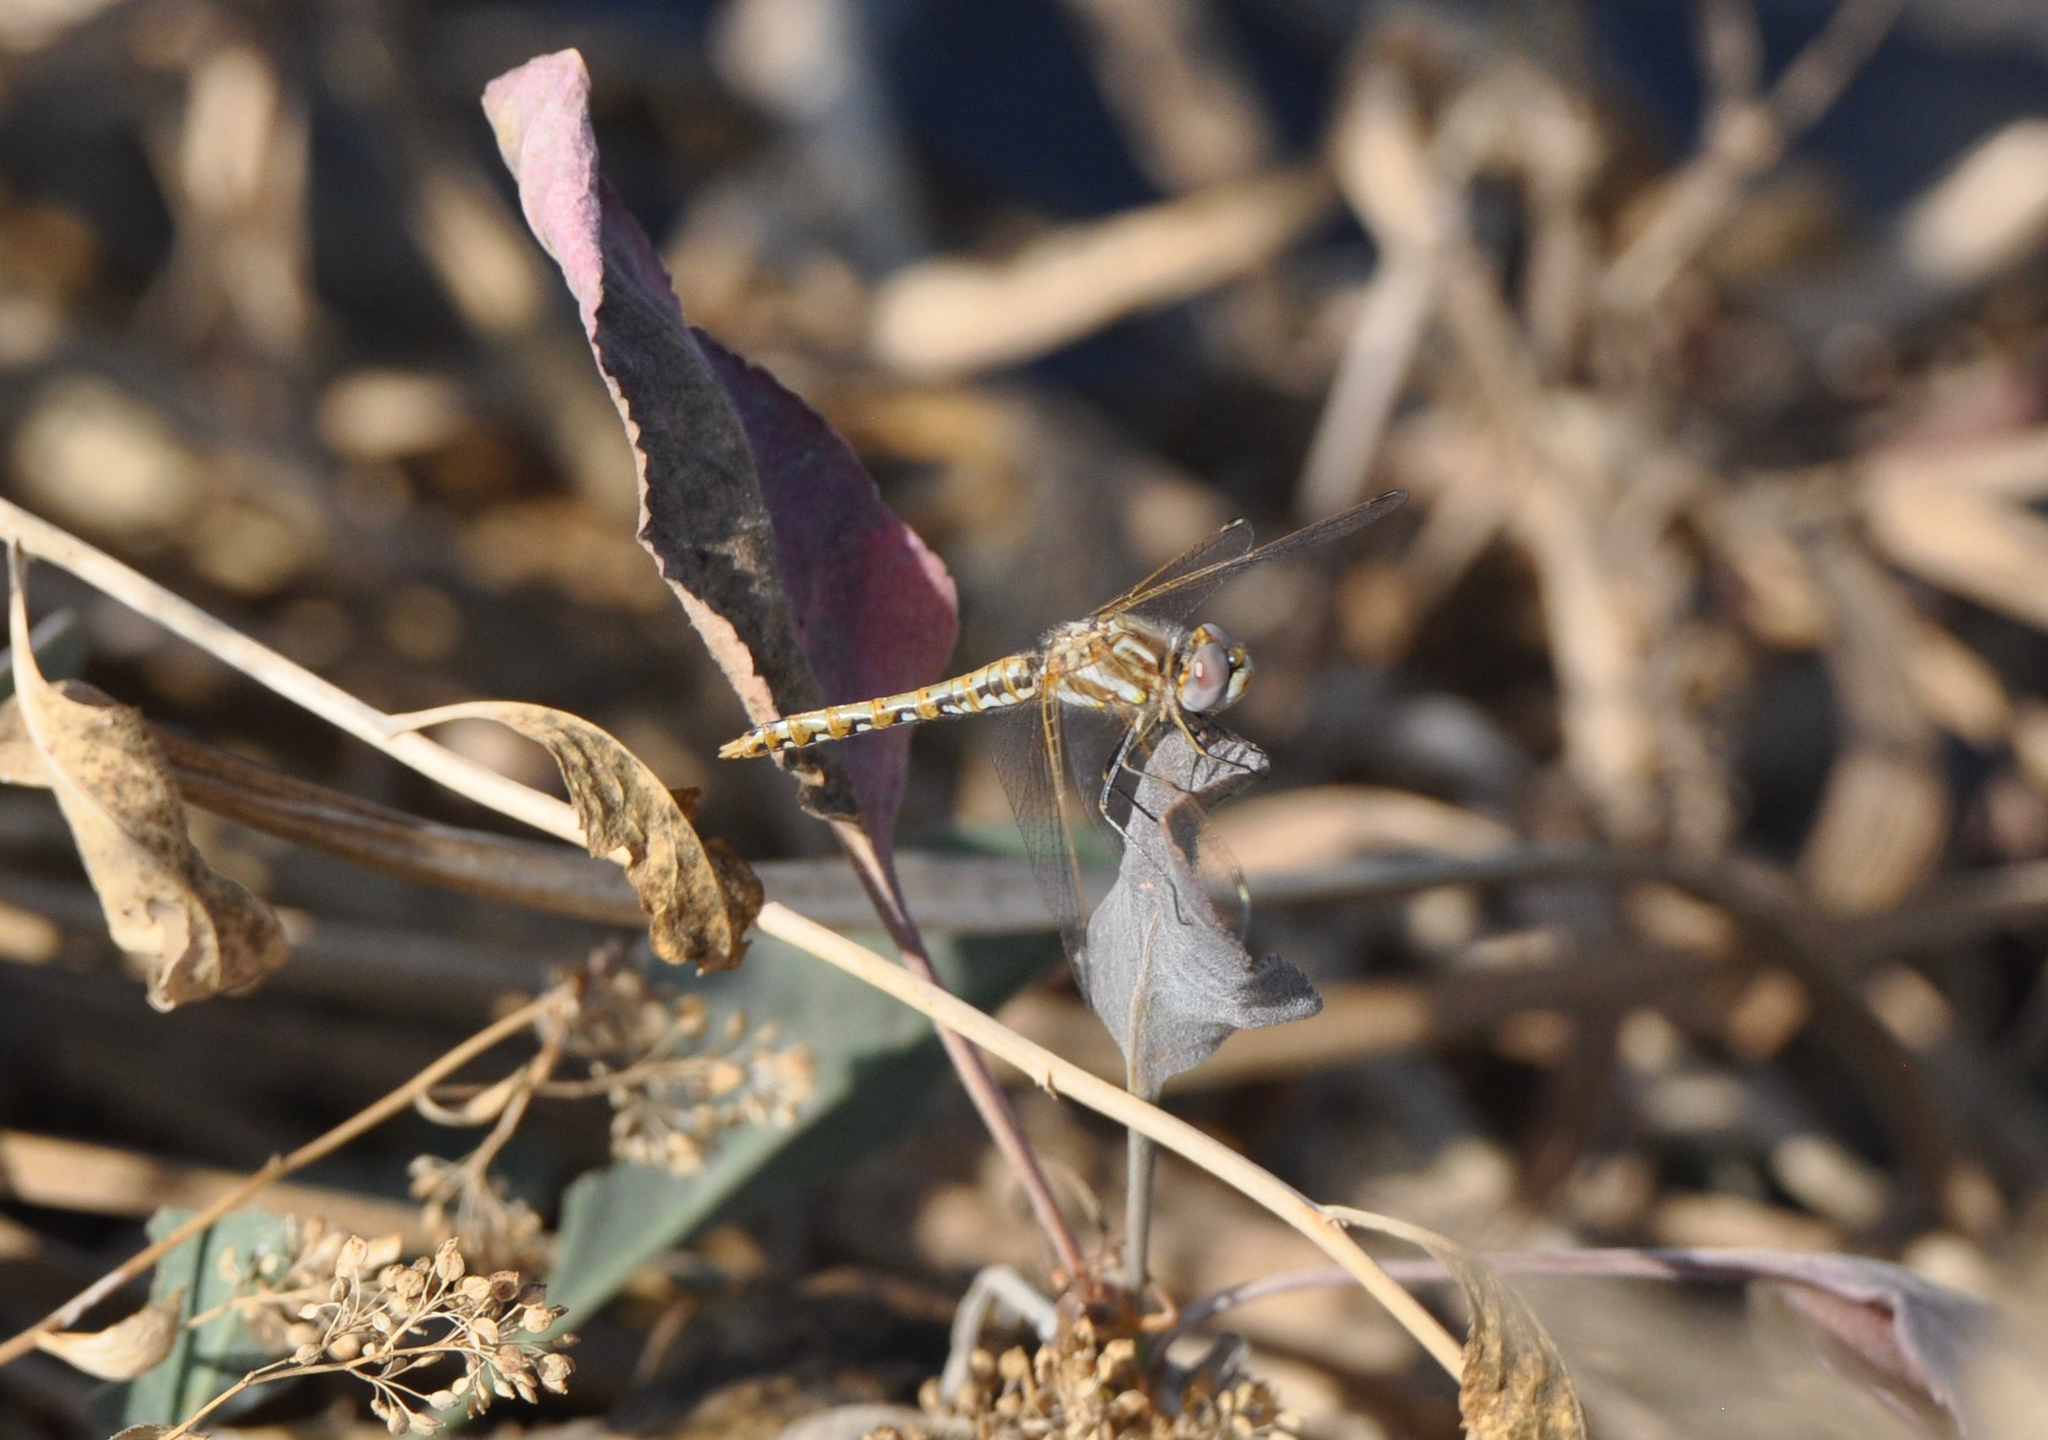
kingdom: Animalia
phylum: Arthropoda
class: Insecta
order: Odonata
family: Libellulidae
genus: Sympetrum
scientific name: Sympetrum corruptum
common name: Variegated meadowhawk
